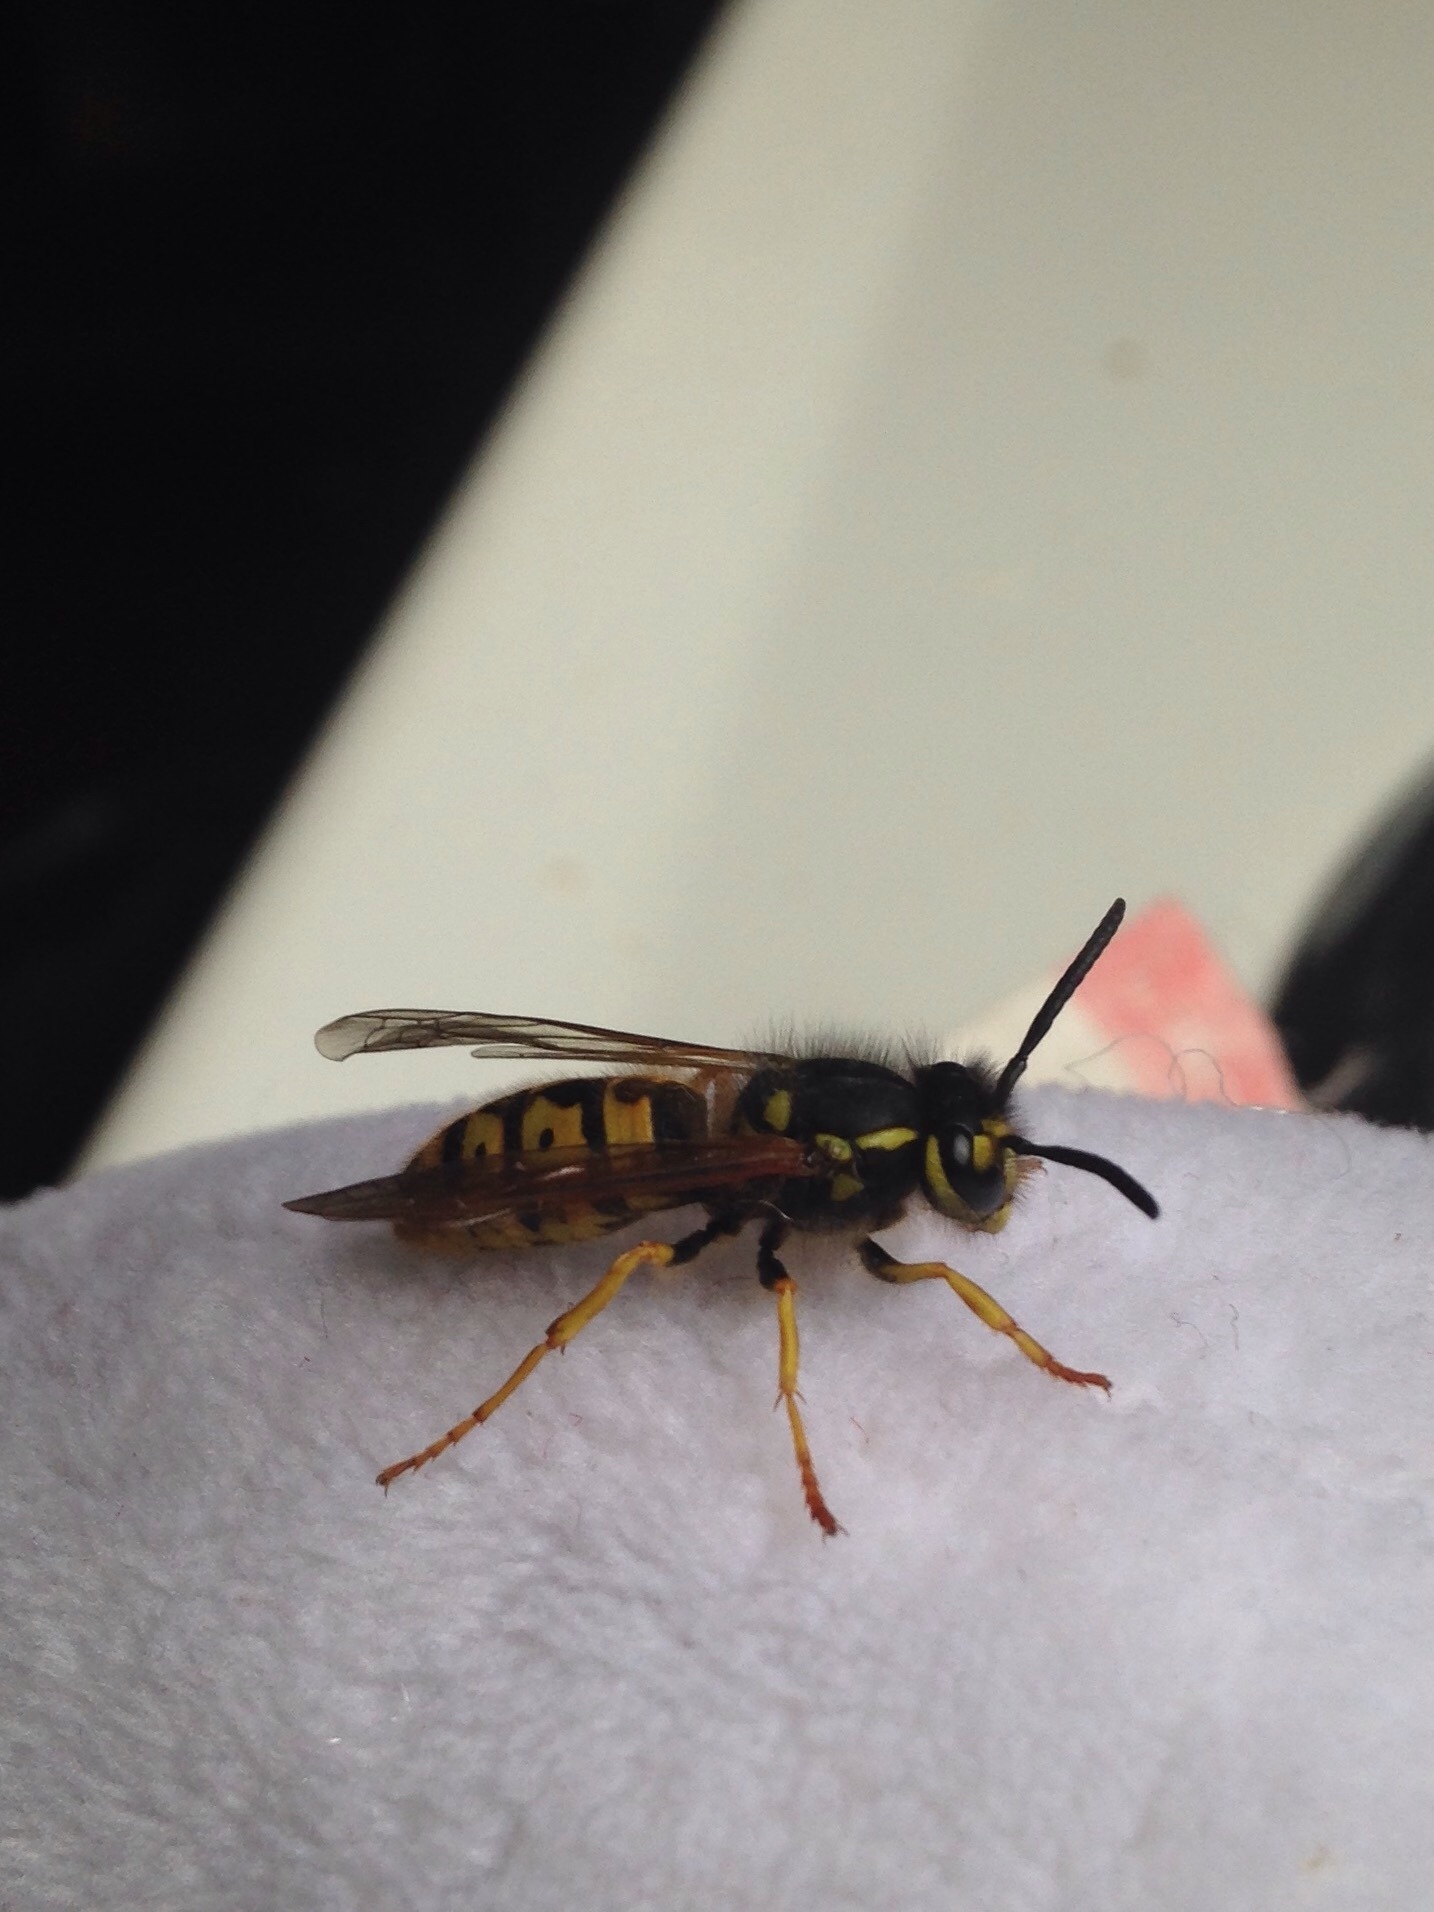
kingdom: Animalia
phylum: Arthropoda
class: Insecta
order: Hymenoptera
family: Vespidae
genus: Vespula
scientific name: Vespula germanica
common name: German wasp
